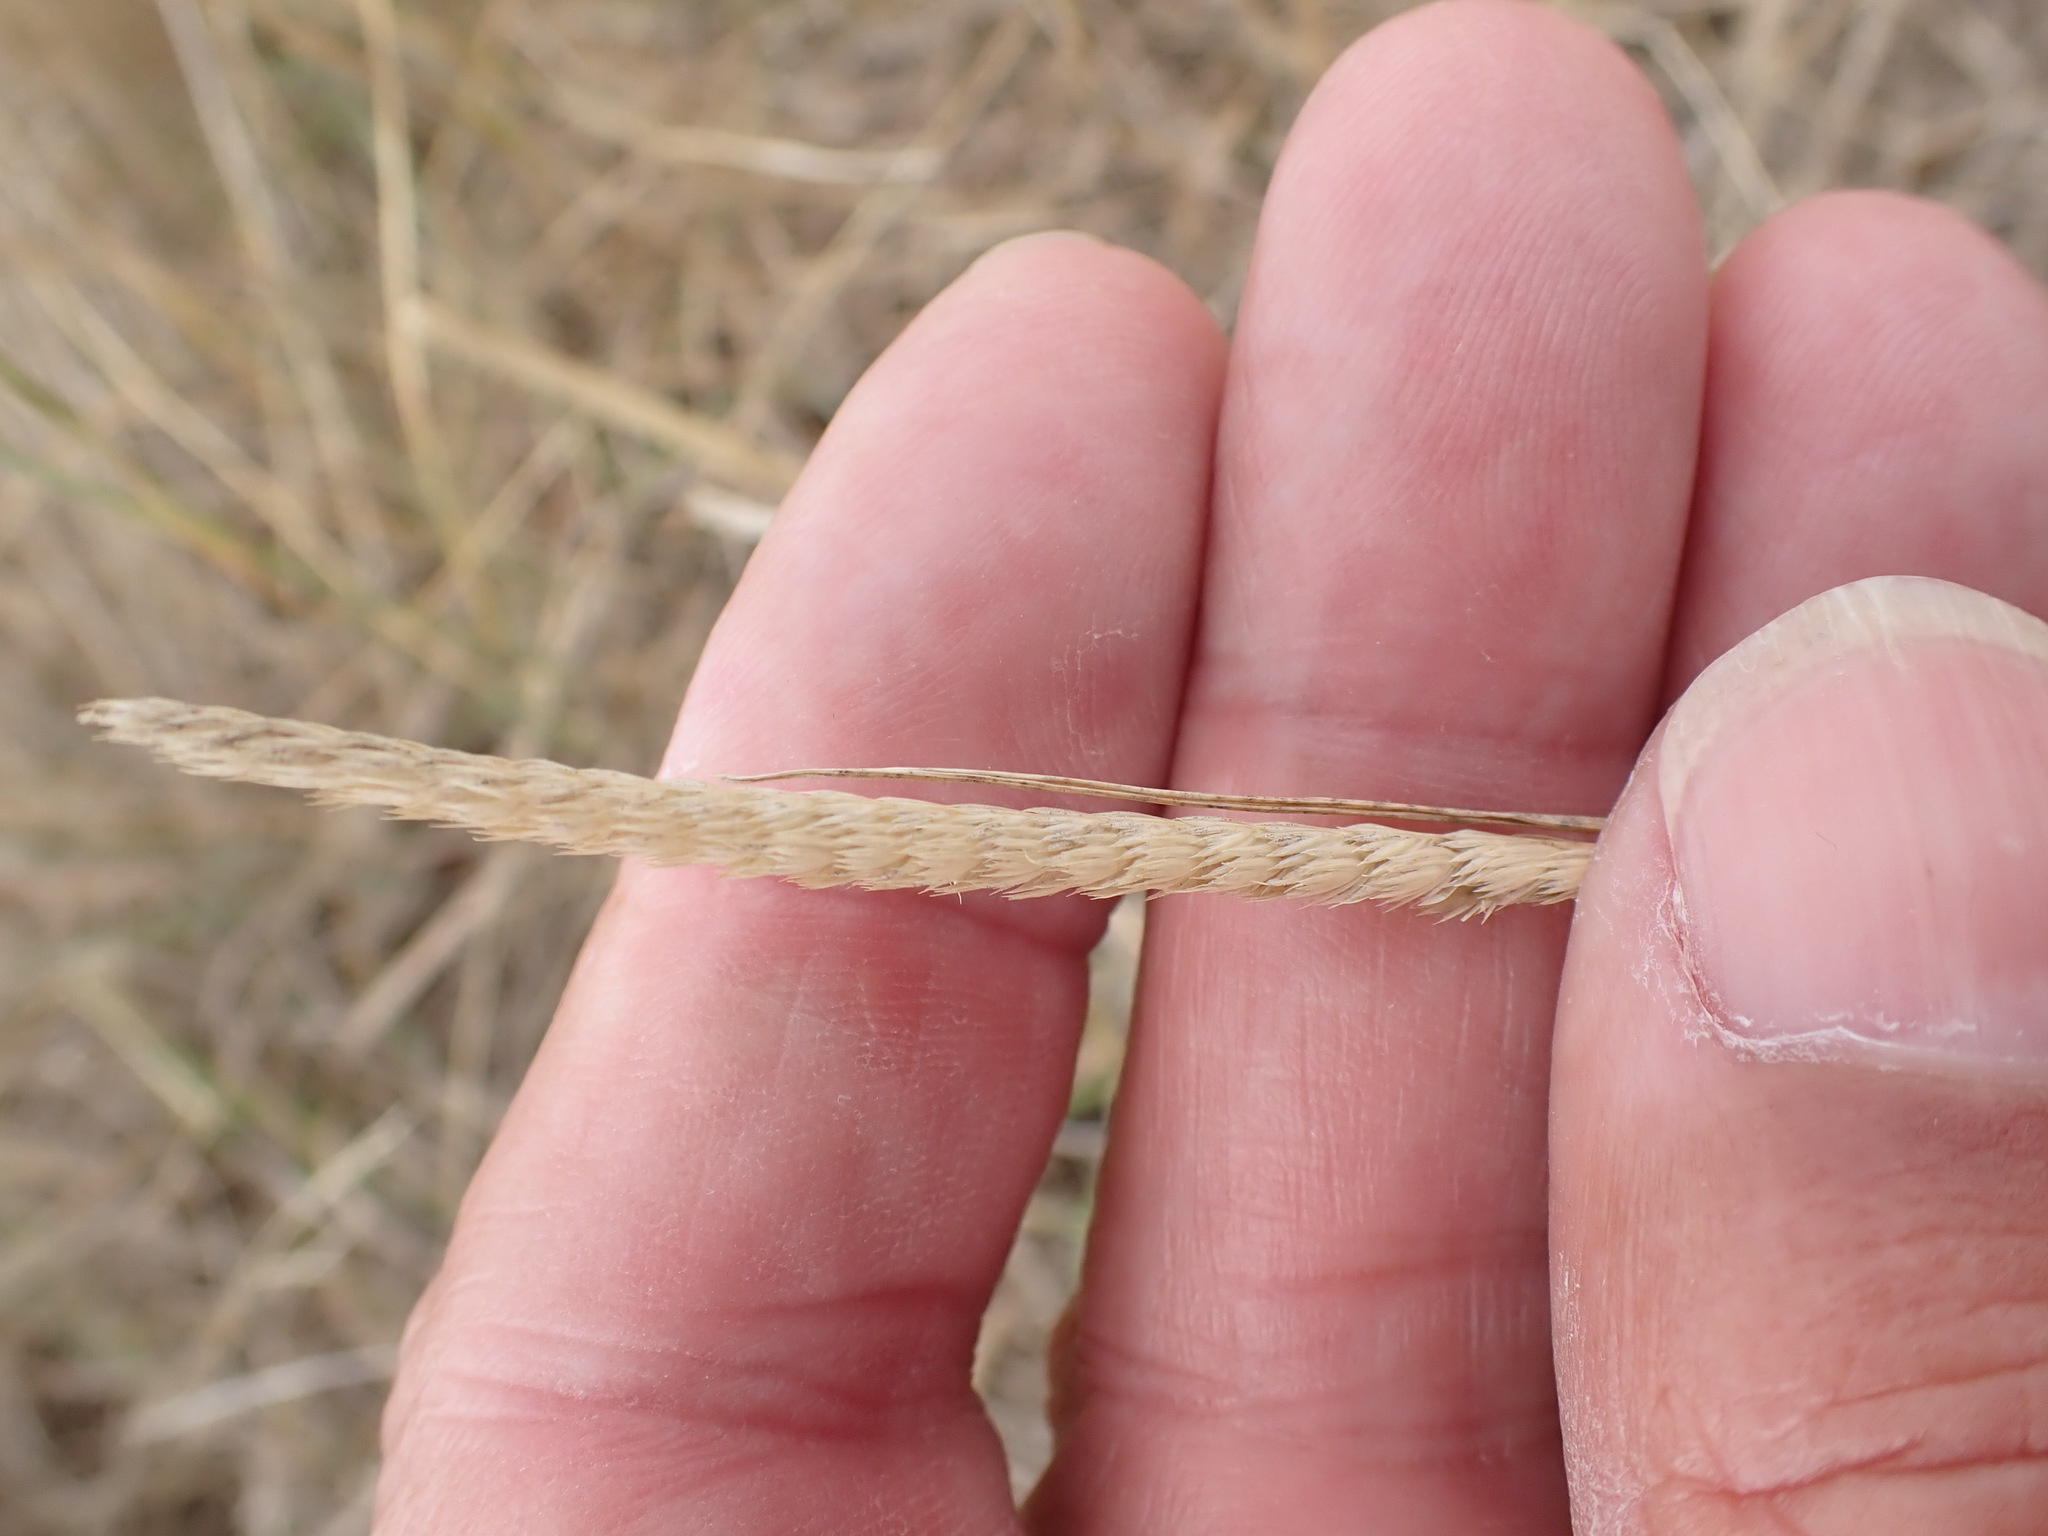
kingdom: Plantae
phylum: Tracheophyta
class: Liliopsida
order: Poales
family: Poaceae
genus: Cynosurus
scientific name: Cynosurus cristatus
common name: Crested dog's-tail
